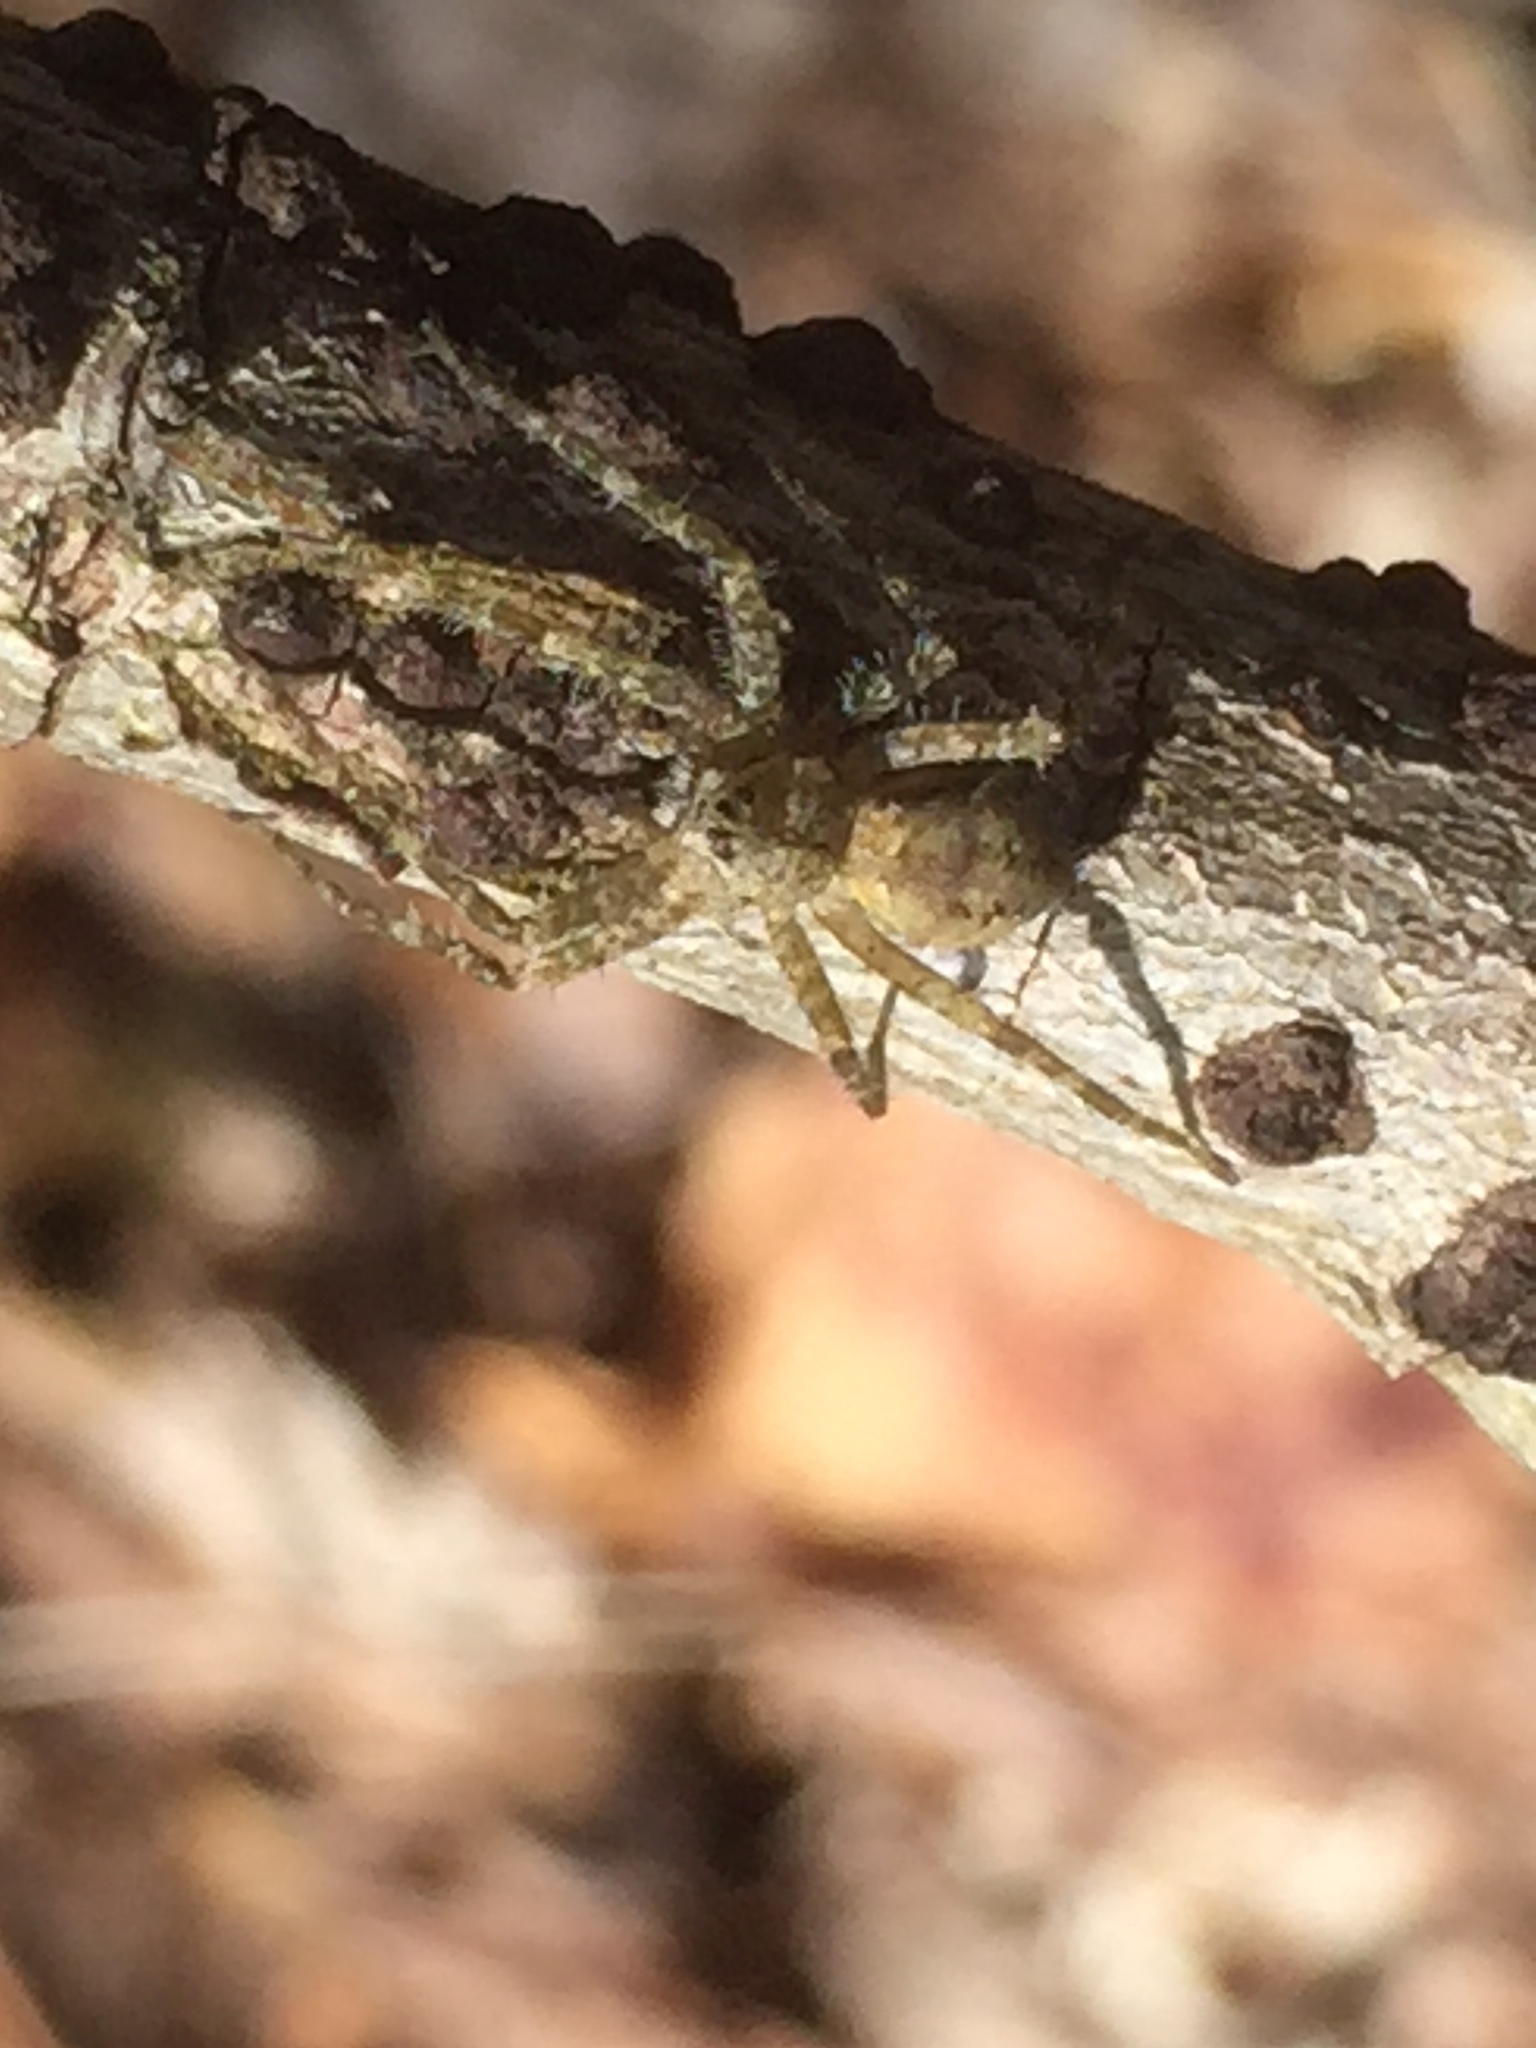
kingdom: Animalia
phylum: Arthropoda
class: Arachnida
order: Araneae
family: Pisauridae
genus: Dolomedes
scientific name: Dolomedes albineus
